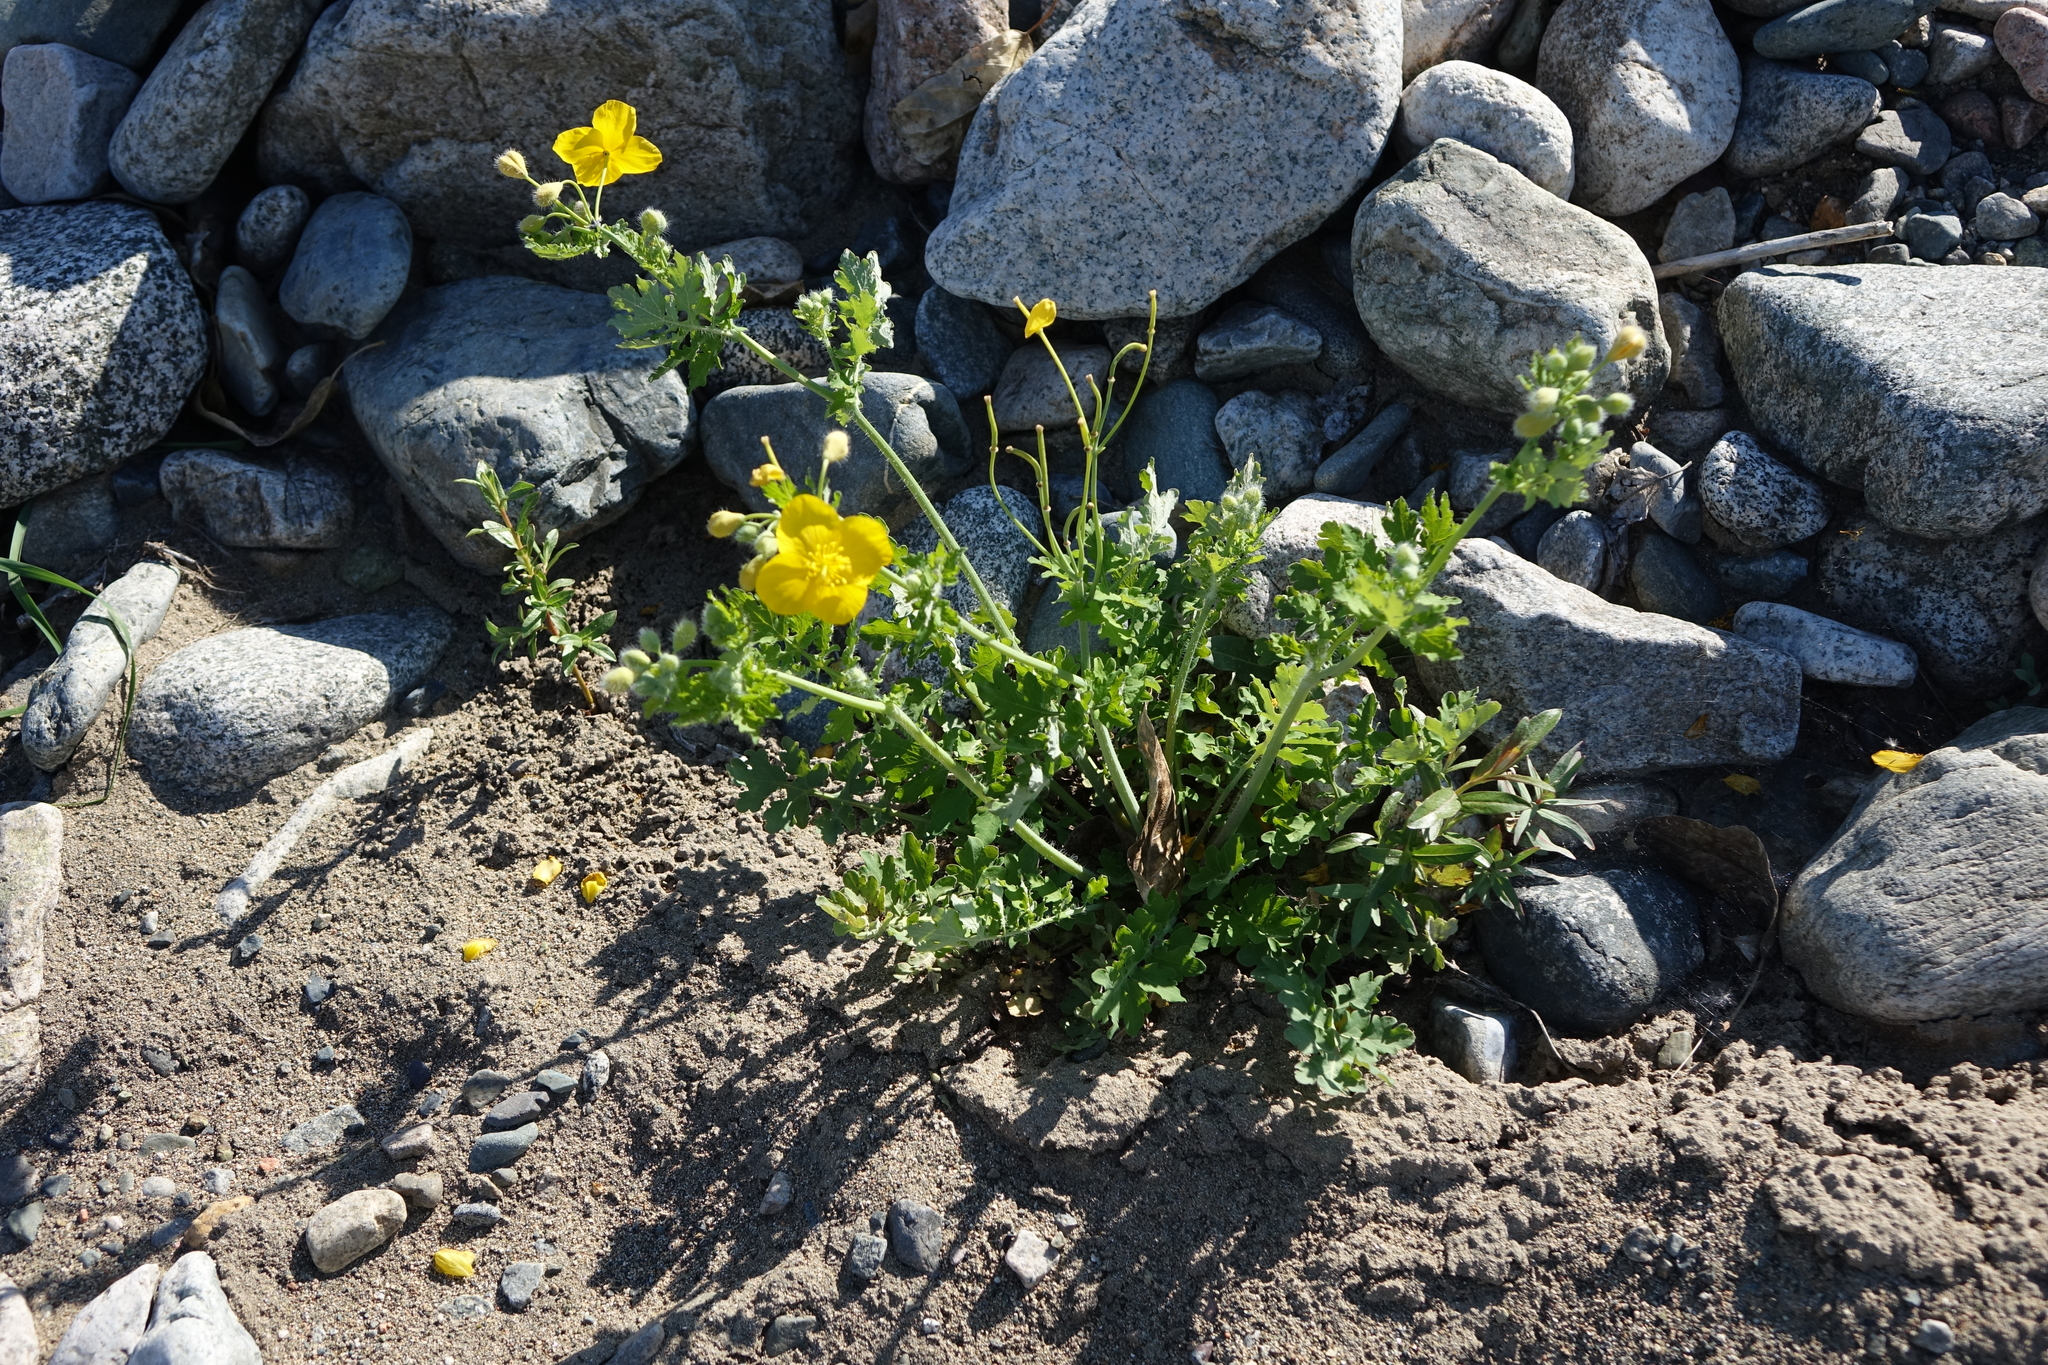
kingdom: Plantae
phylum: Tracheophyta
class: Magnoliopsida
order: Ranunculales
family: Papaveraceae
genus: Chelidonium
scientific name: Chelidonium majus
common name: Greater celandine
